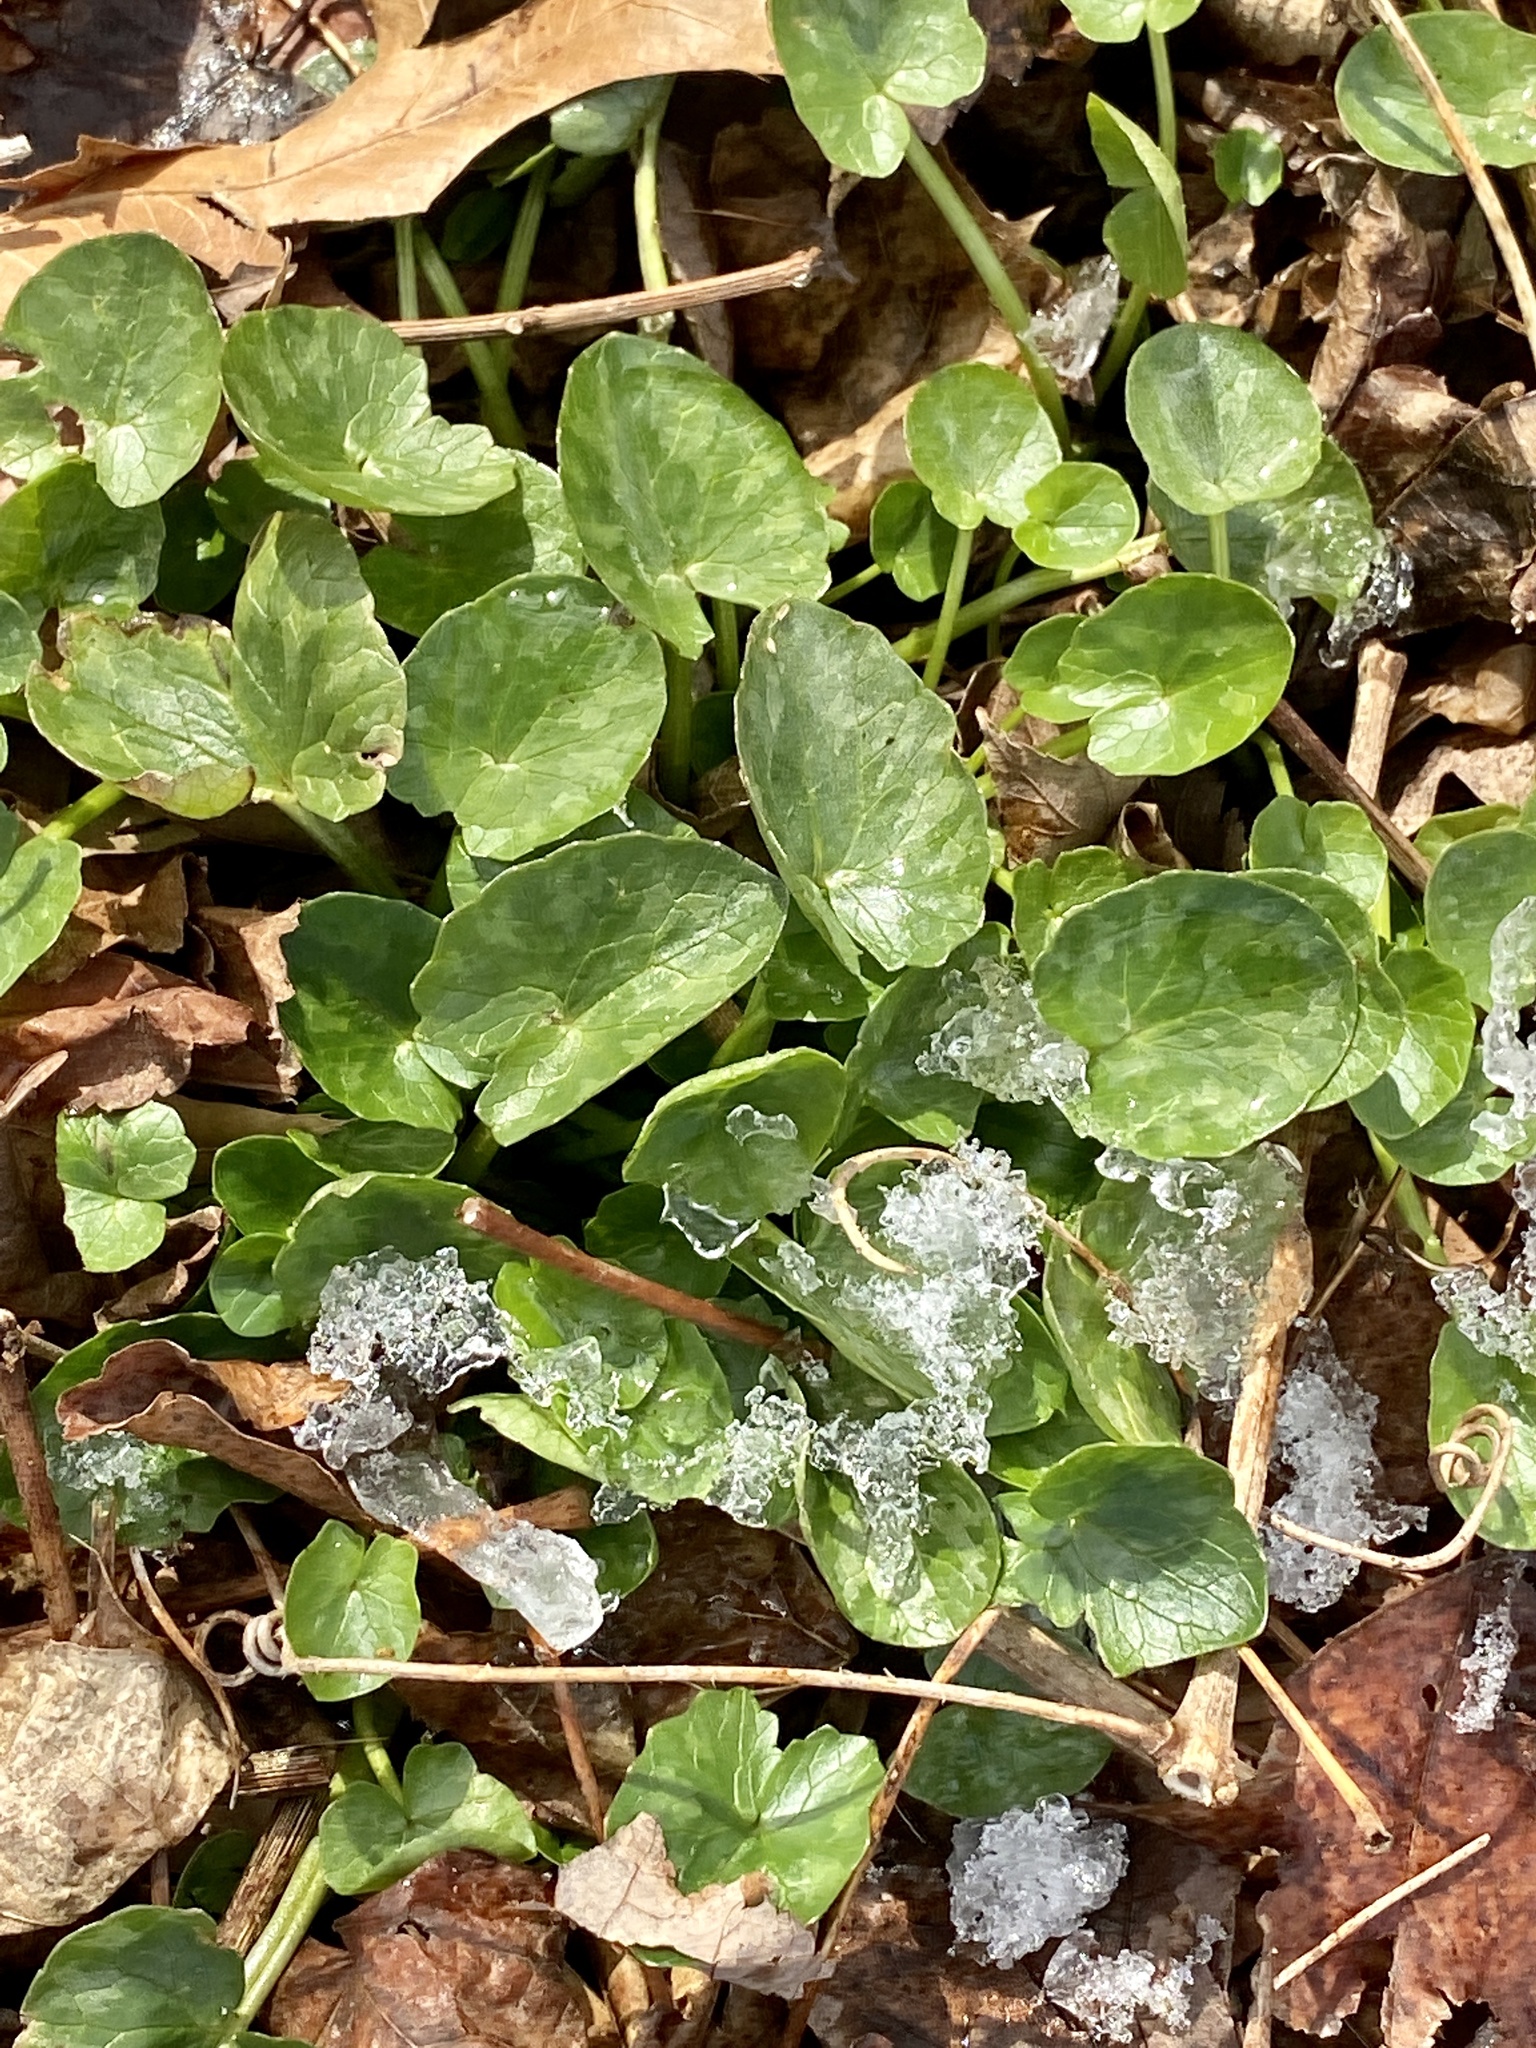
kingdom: Plantae
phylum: Tracheophyta
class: Magnoliopsida
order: Ranunculales
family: Ranunculaceae
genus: Ficaria
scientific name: Ficaria verna
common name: Lesser celandine
